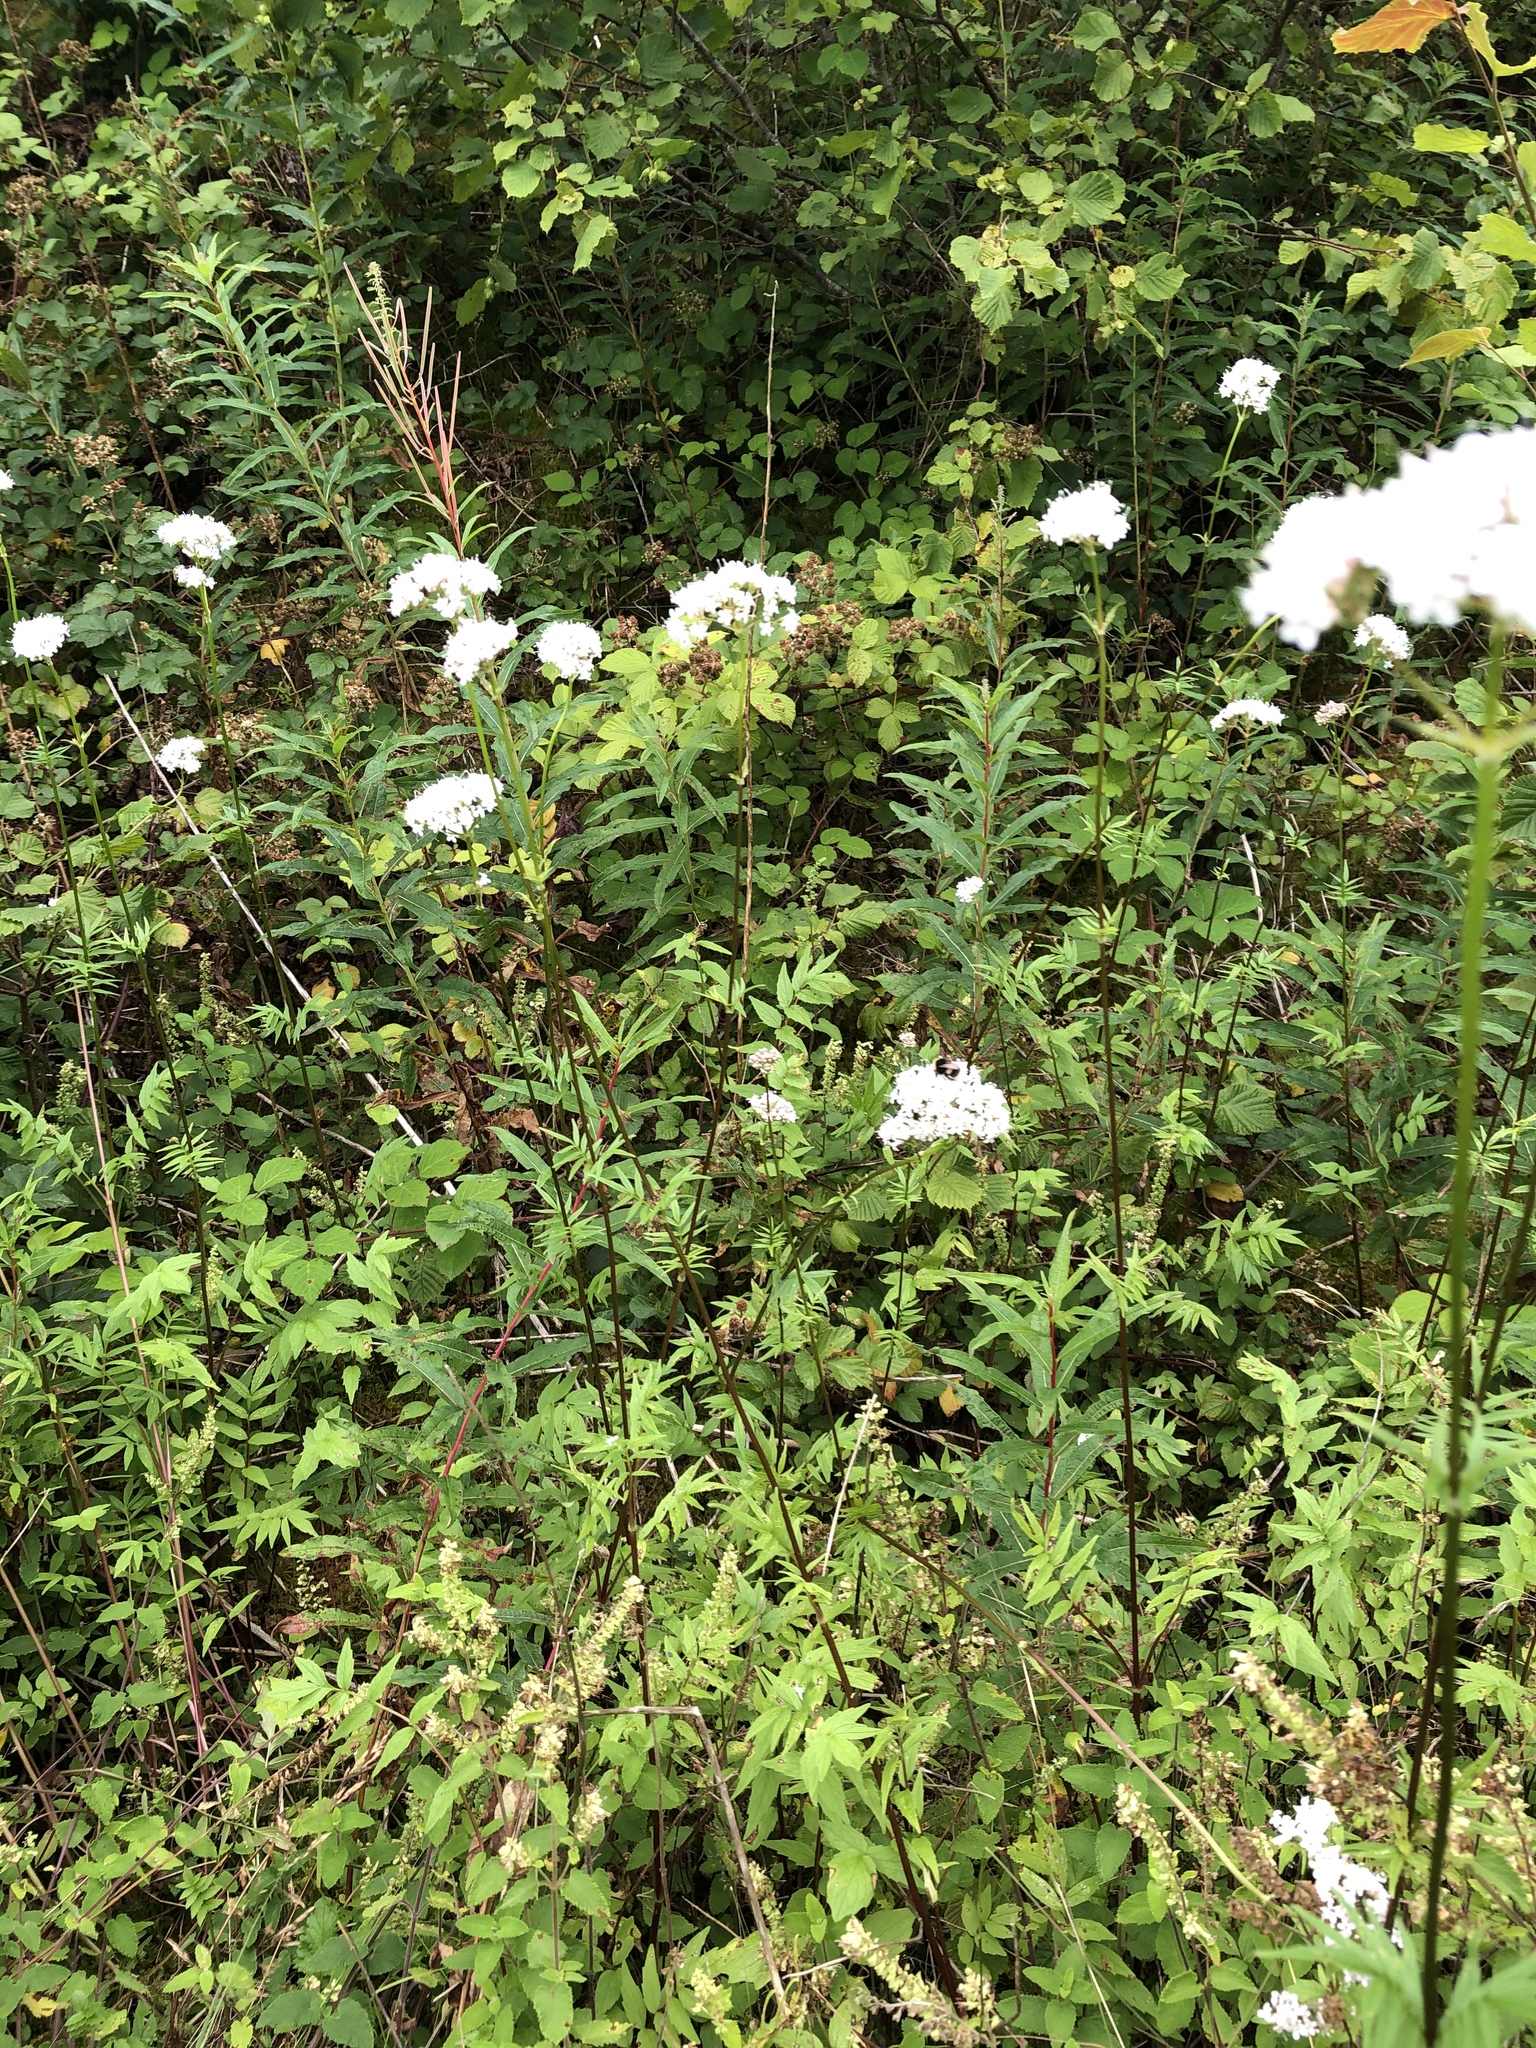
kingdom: Plantae
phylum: Tracheophyta
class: Magnoliopsida
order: Dipsacales
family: Caprifoliaceae
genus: Valeriana
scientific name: Valeriana officinalis
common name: Common valerian
